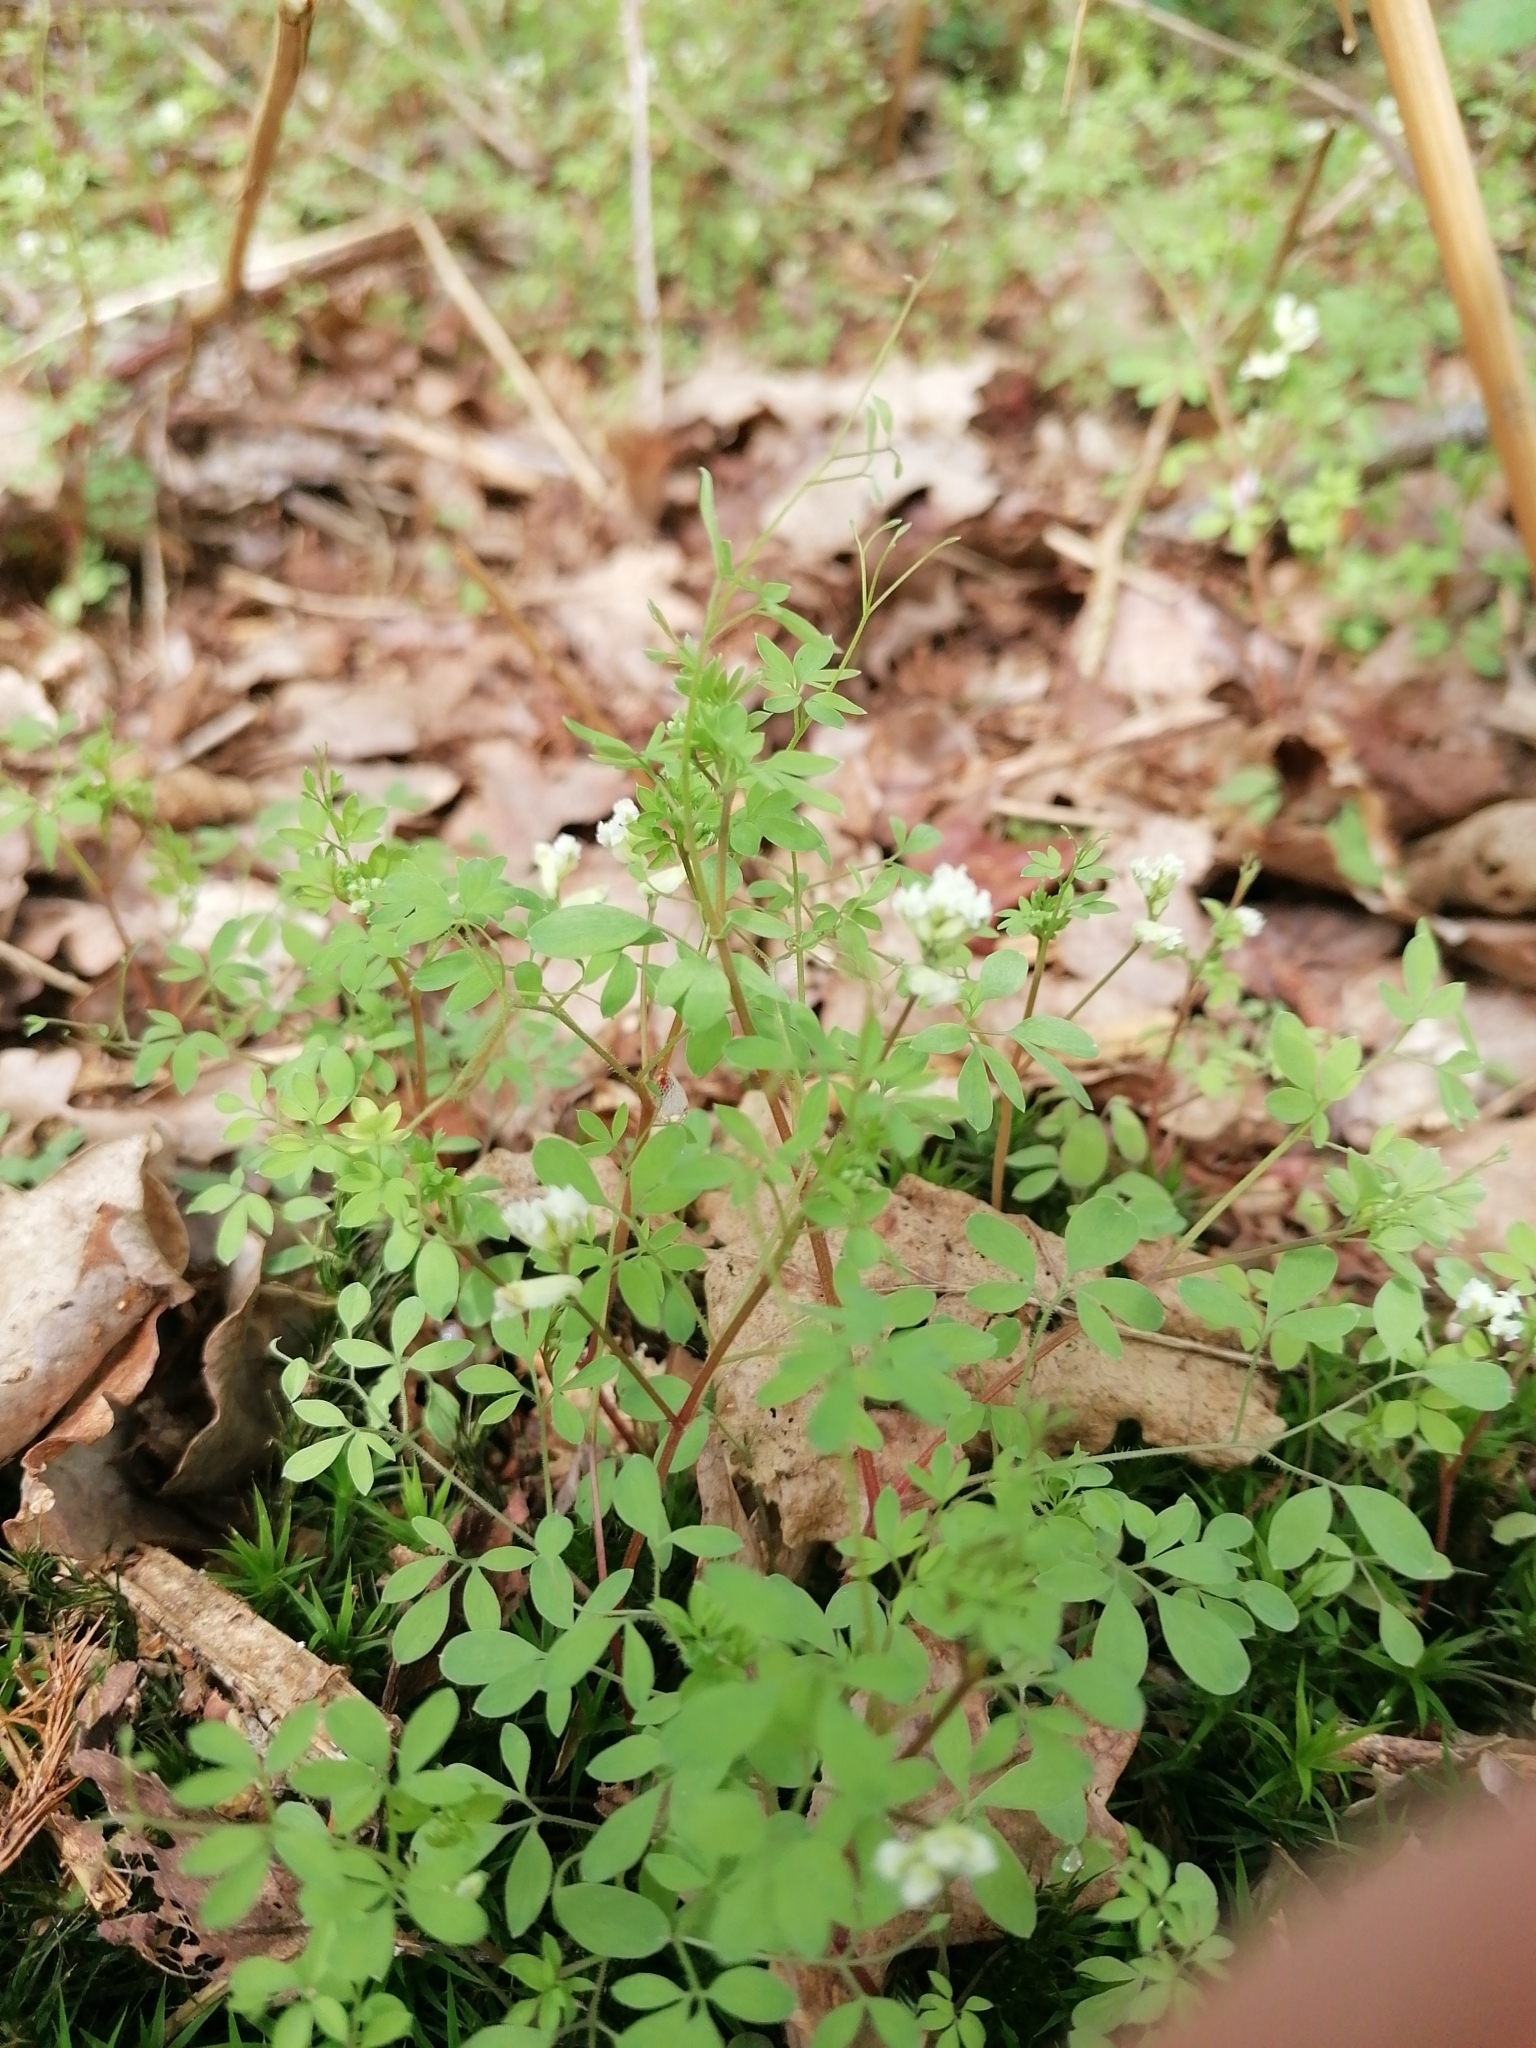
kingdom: Plantae
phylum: Tracheophyta
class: Magnoliopsida
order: Ranunculales
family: Papaveraceae
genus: Ceratocapnos
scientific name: Ceratocapnos claviculata
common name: Climbing corydalis
